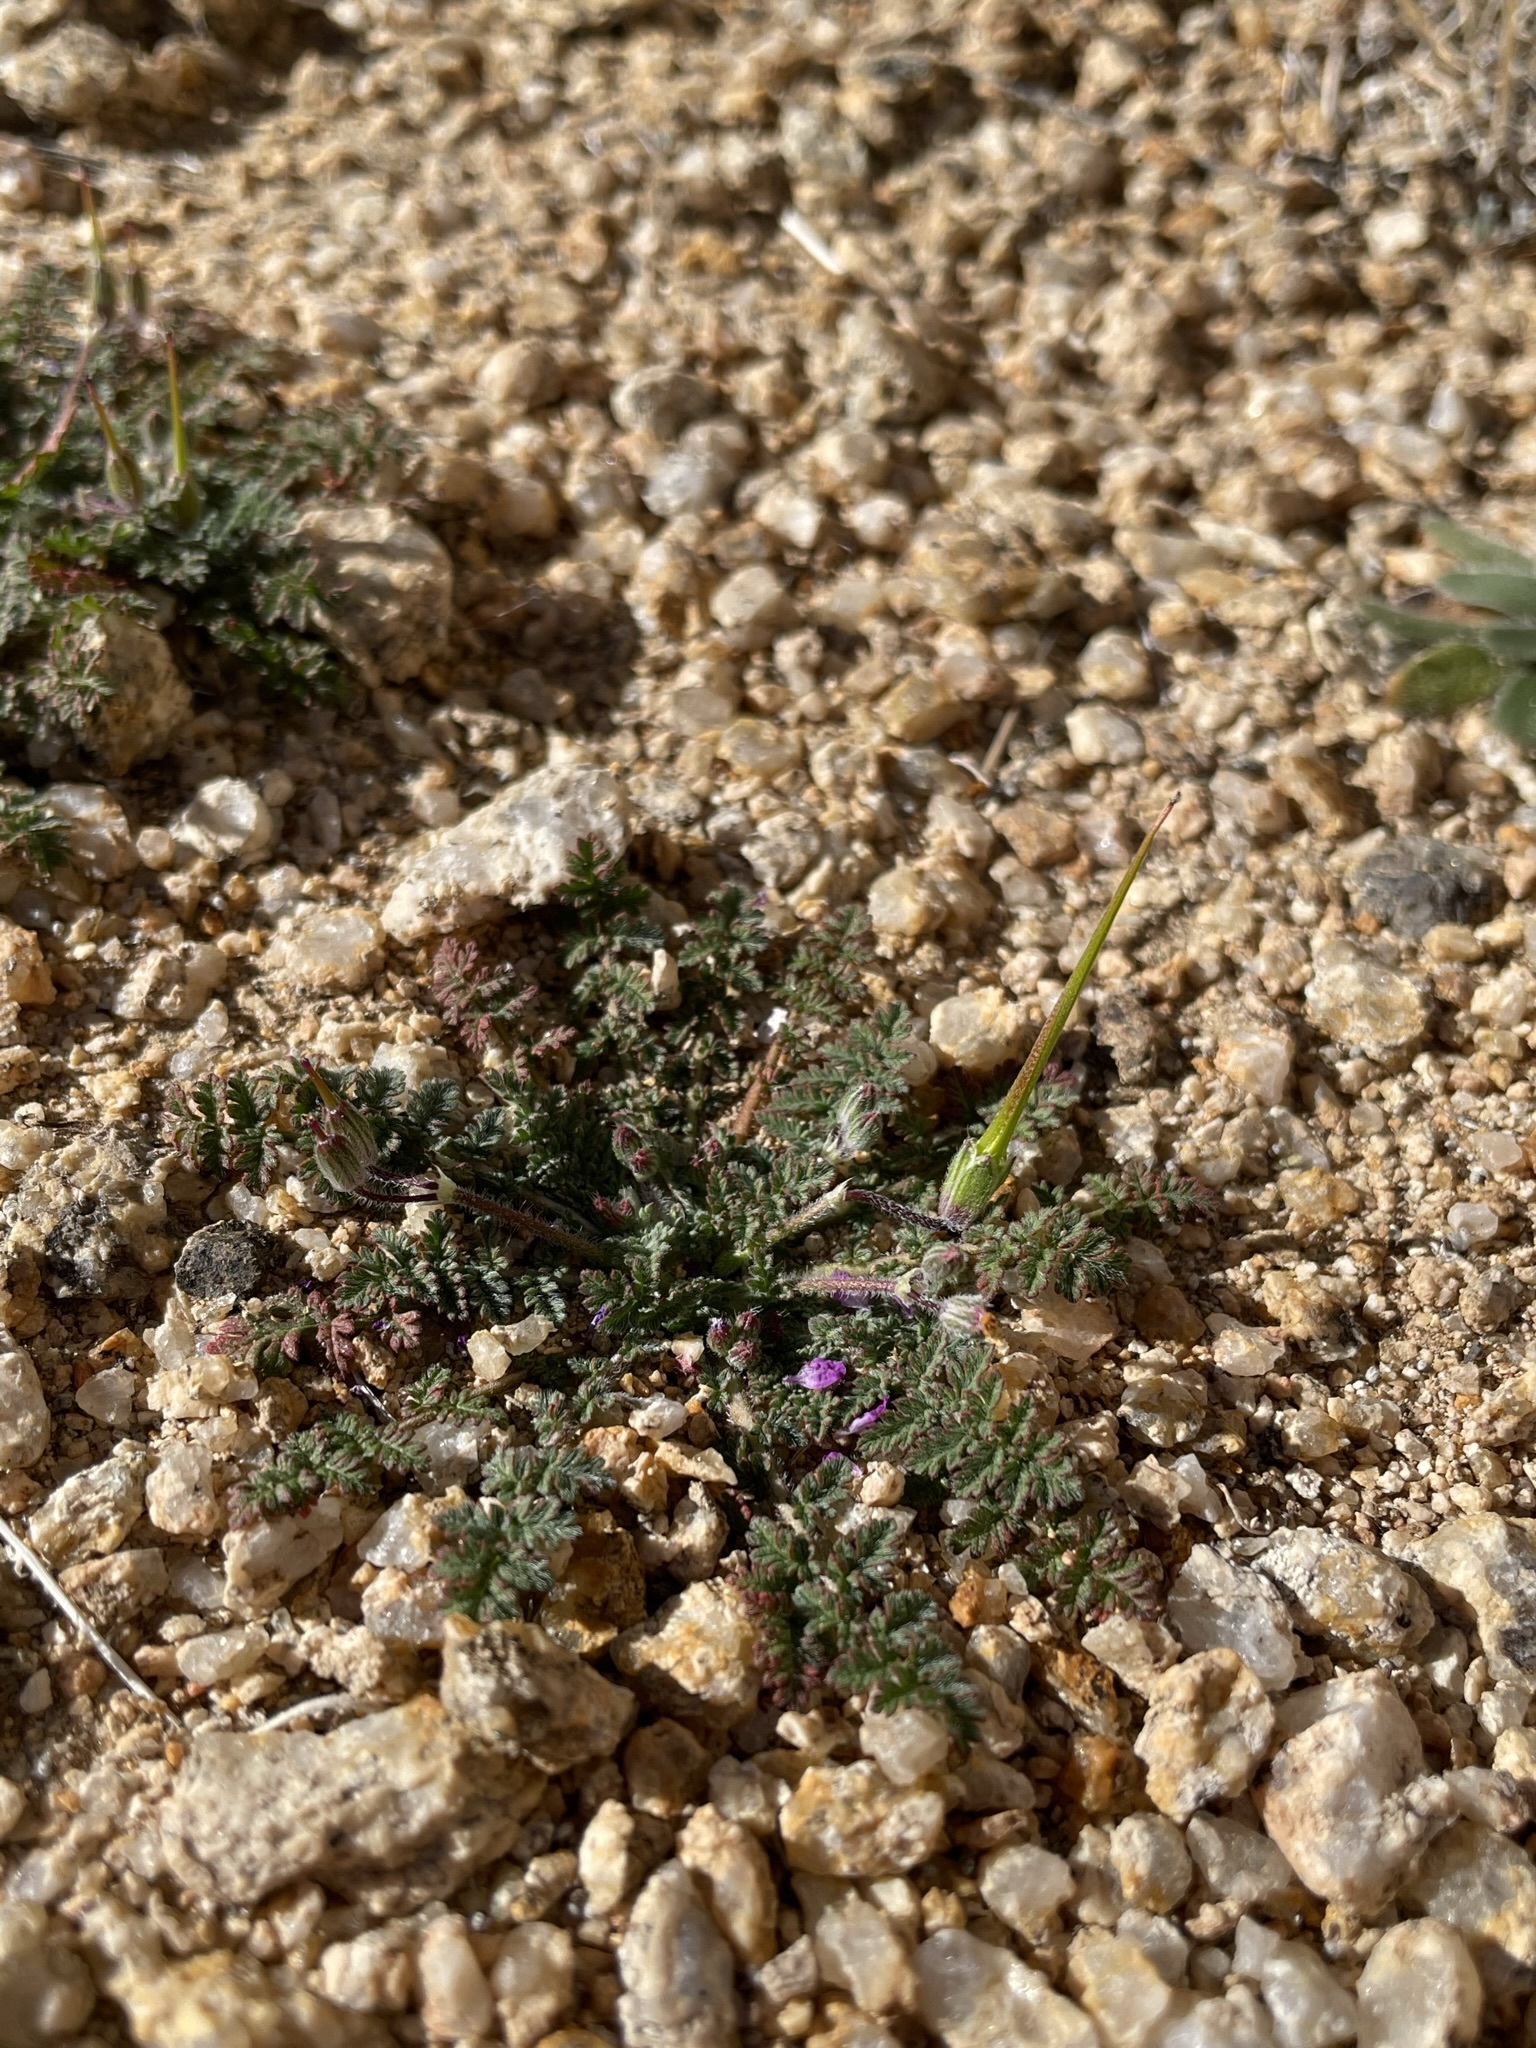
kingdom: Plantae
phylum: Tracheophyta
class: Magnoliopsida
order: Geraniales
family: Geraniaceae
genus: Erodium
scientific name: Erodium cicutarium
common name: Common stork's-bill
